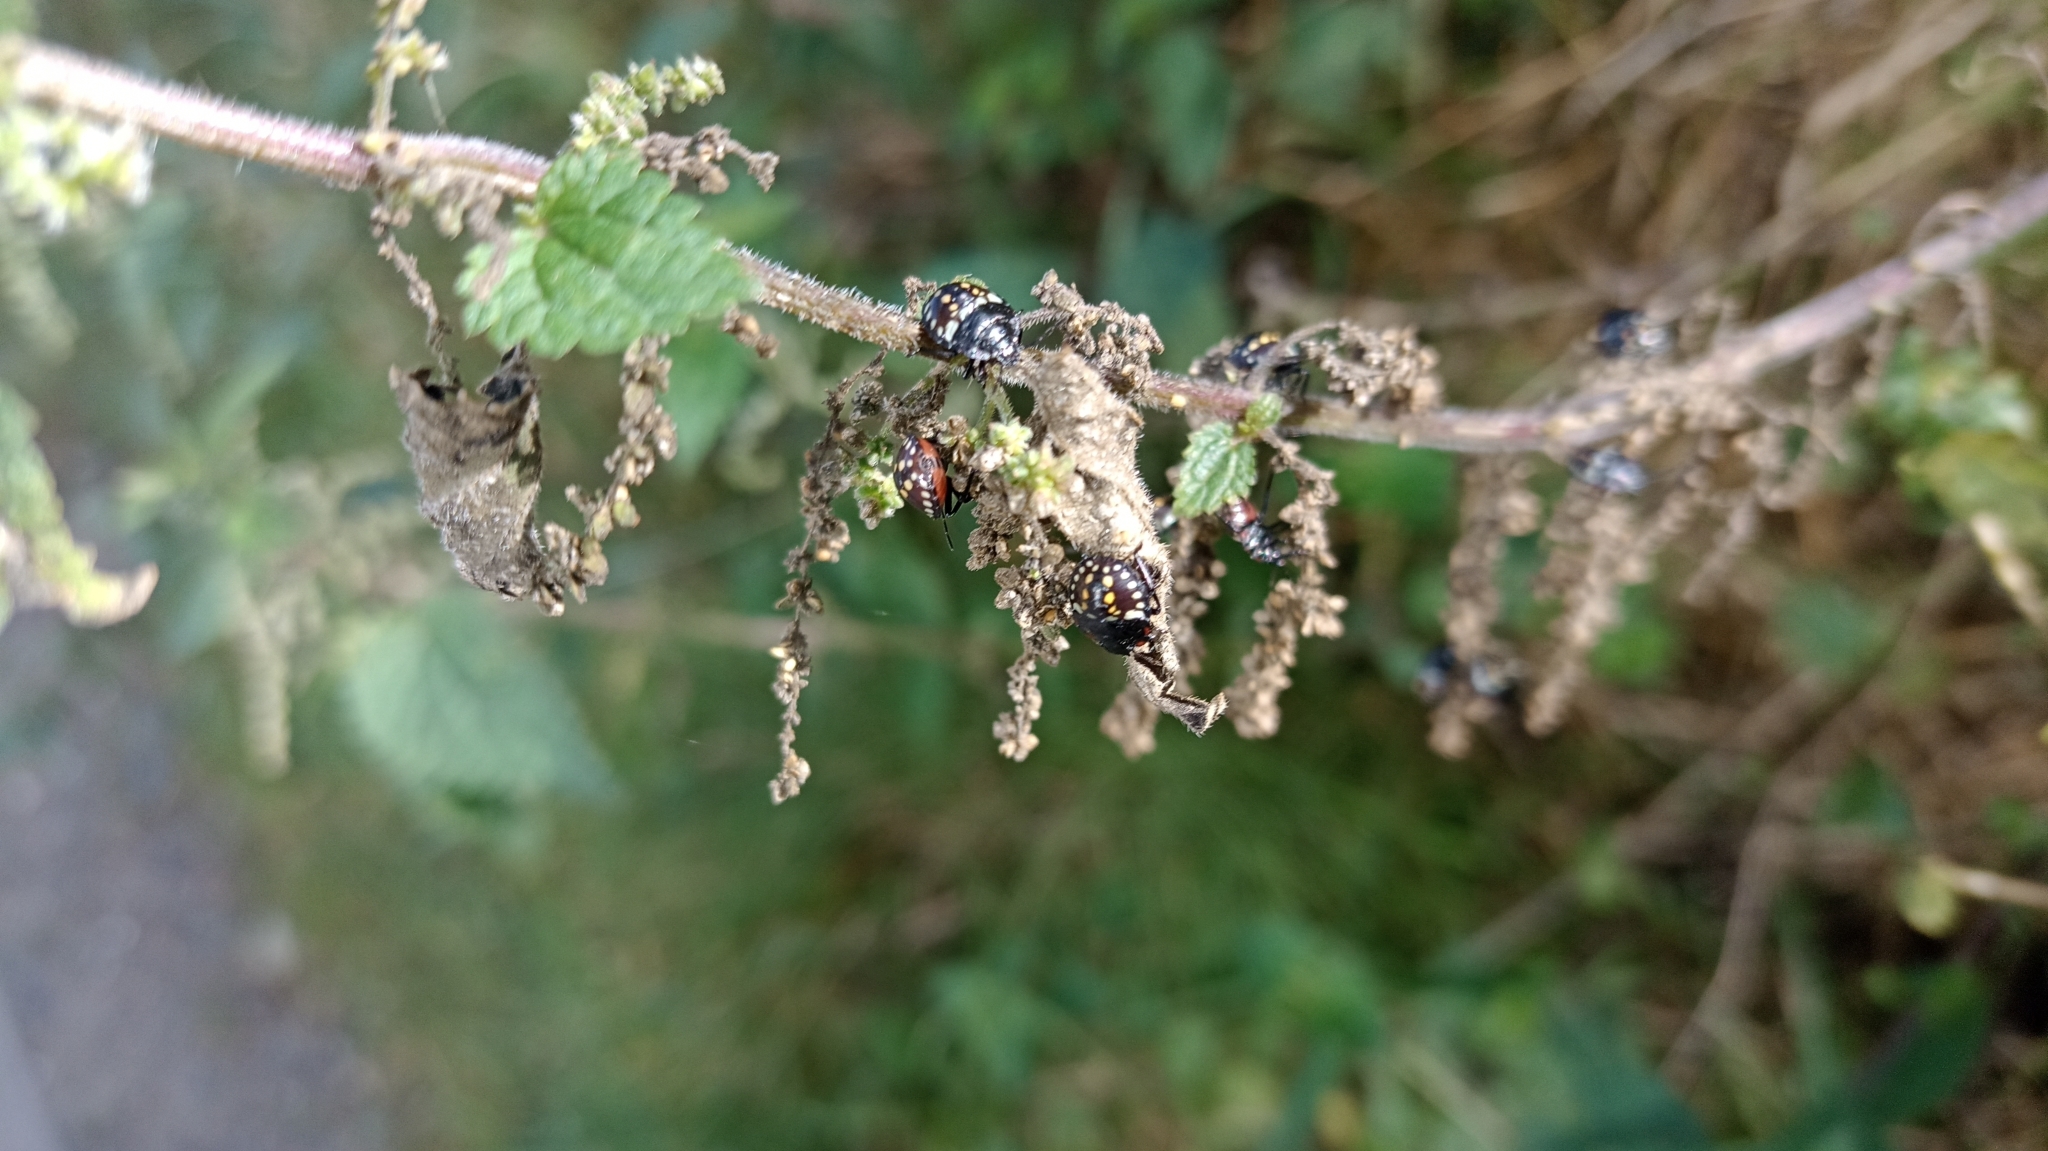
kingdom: Animalia
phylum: Arthropoda
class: Insecta
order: Hemiptera
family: Pentatomidae
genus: Nezara
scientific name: Nezara viridula
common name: Southern green stink bug
